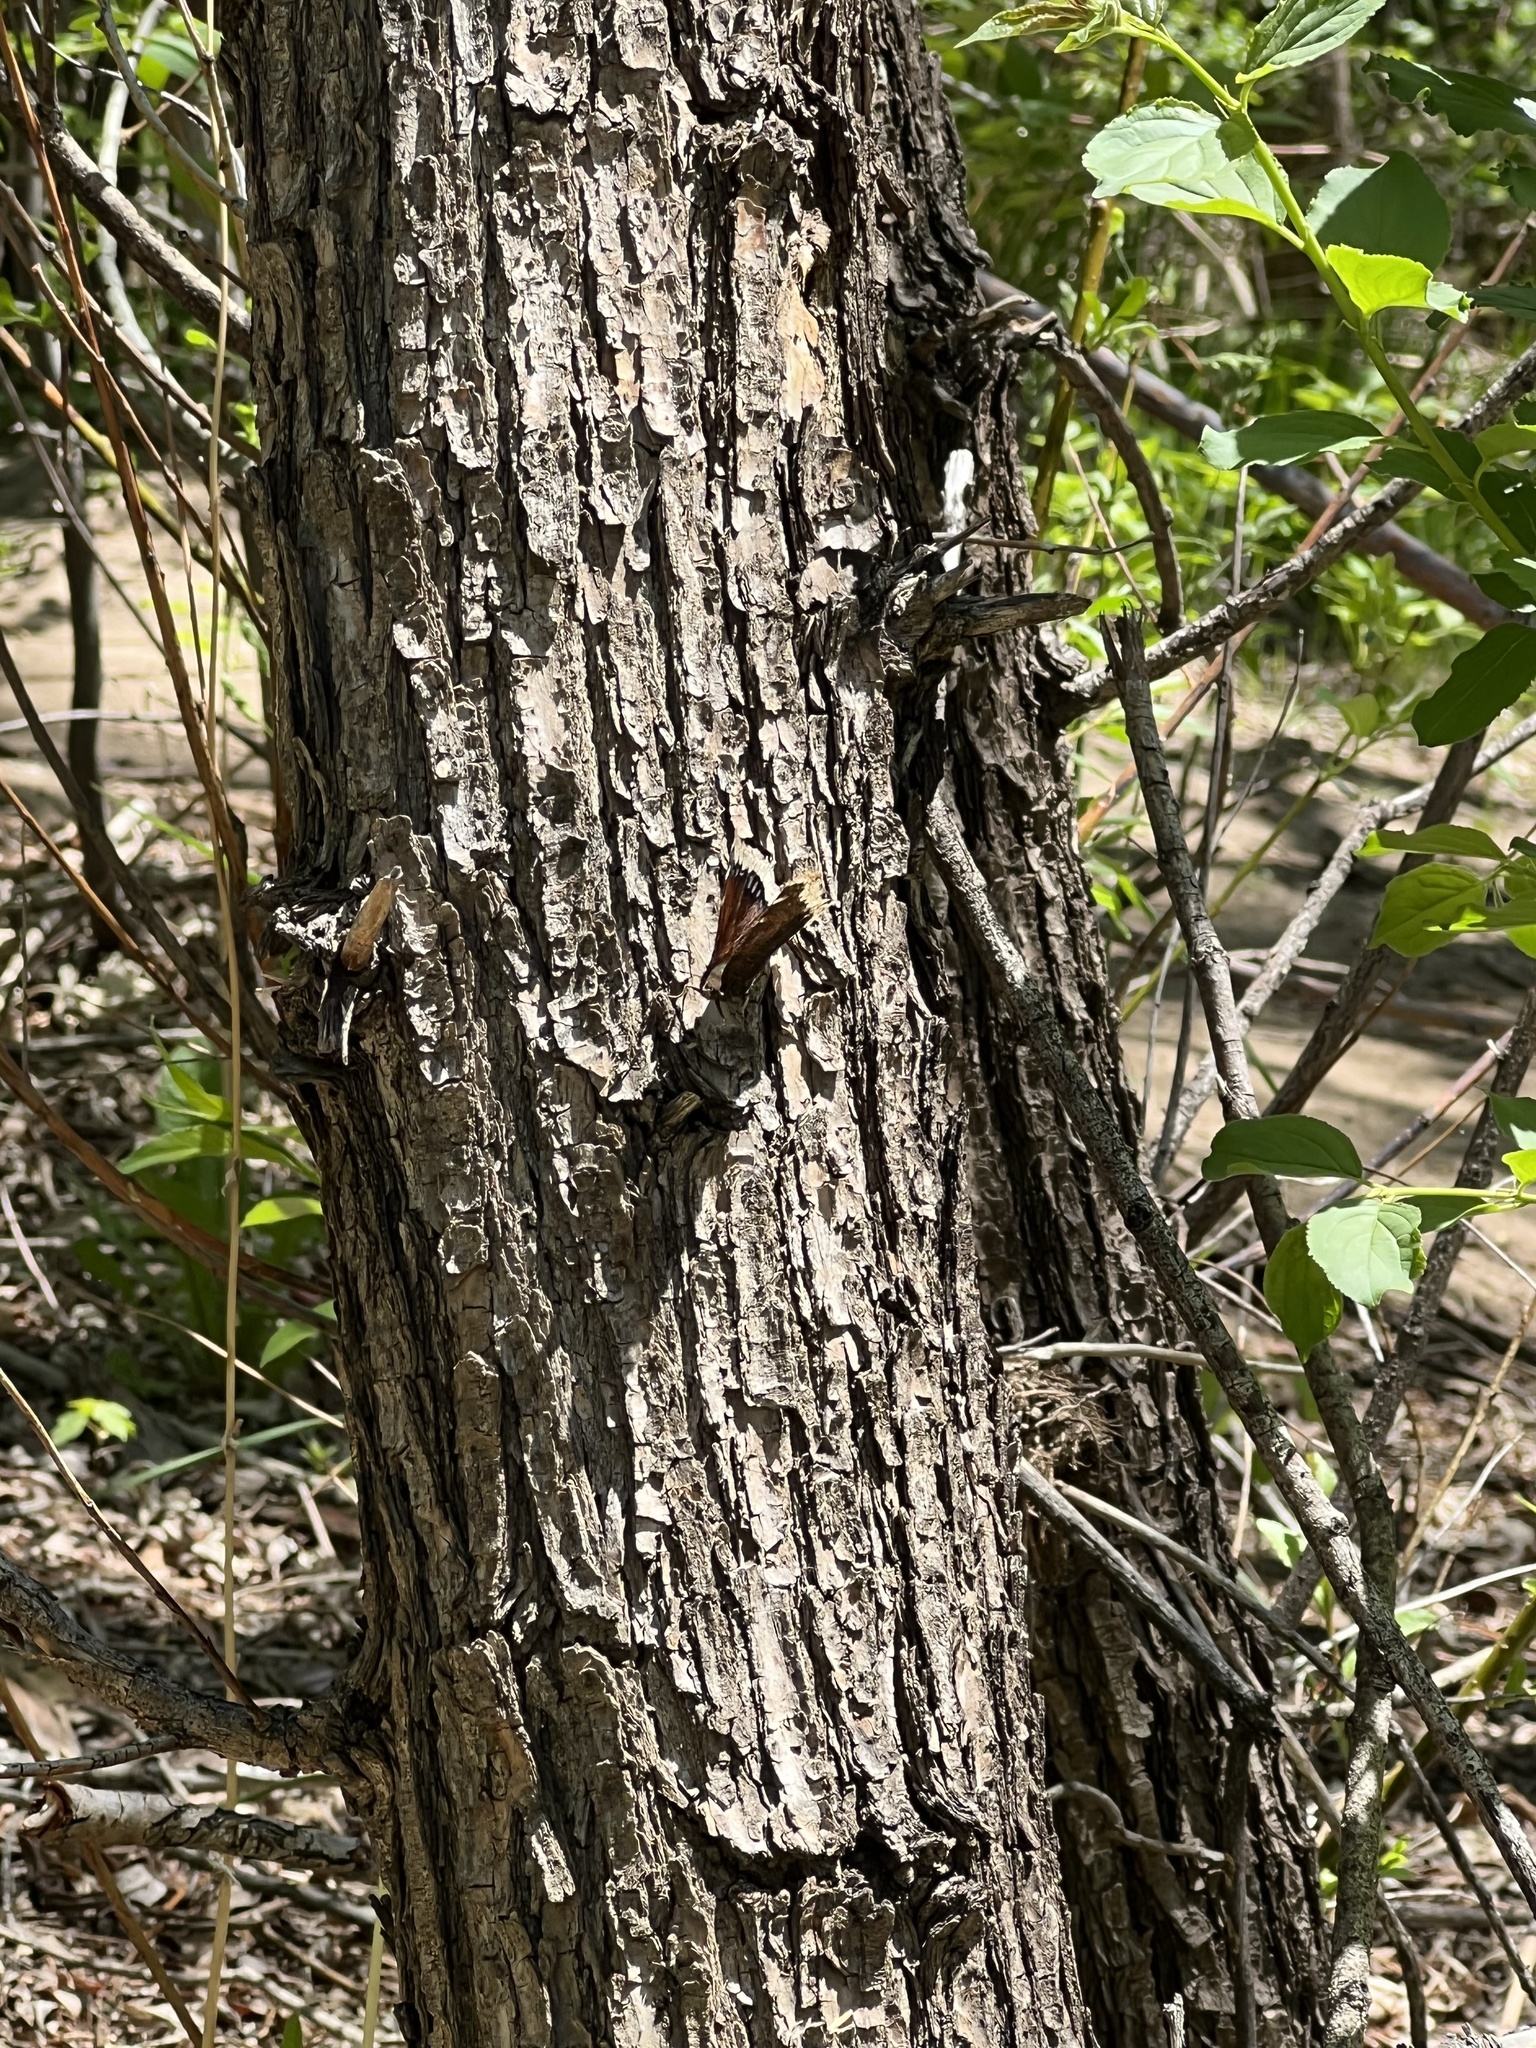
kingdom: Animalia
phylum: Arthropoda
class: Insecta
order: Lepidoptera
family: Nymphalidae
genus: Nymphalis
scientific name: Nymphalis antiopa
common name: Camberwell beauty
